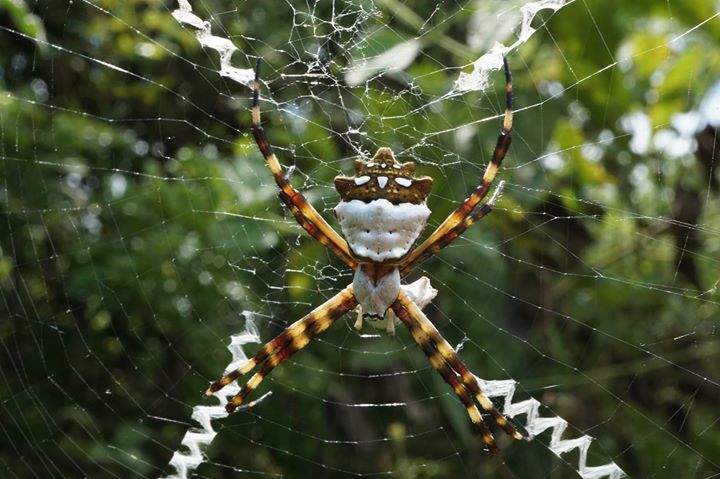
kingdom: Animalia
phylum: Arthropoda
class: Arachnida
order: Araneae
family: Araneidae
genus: Argiope
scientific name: Argiope argentata
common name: Orb weavers
